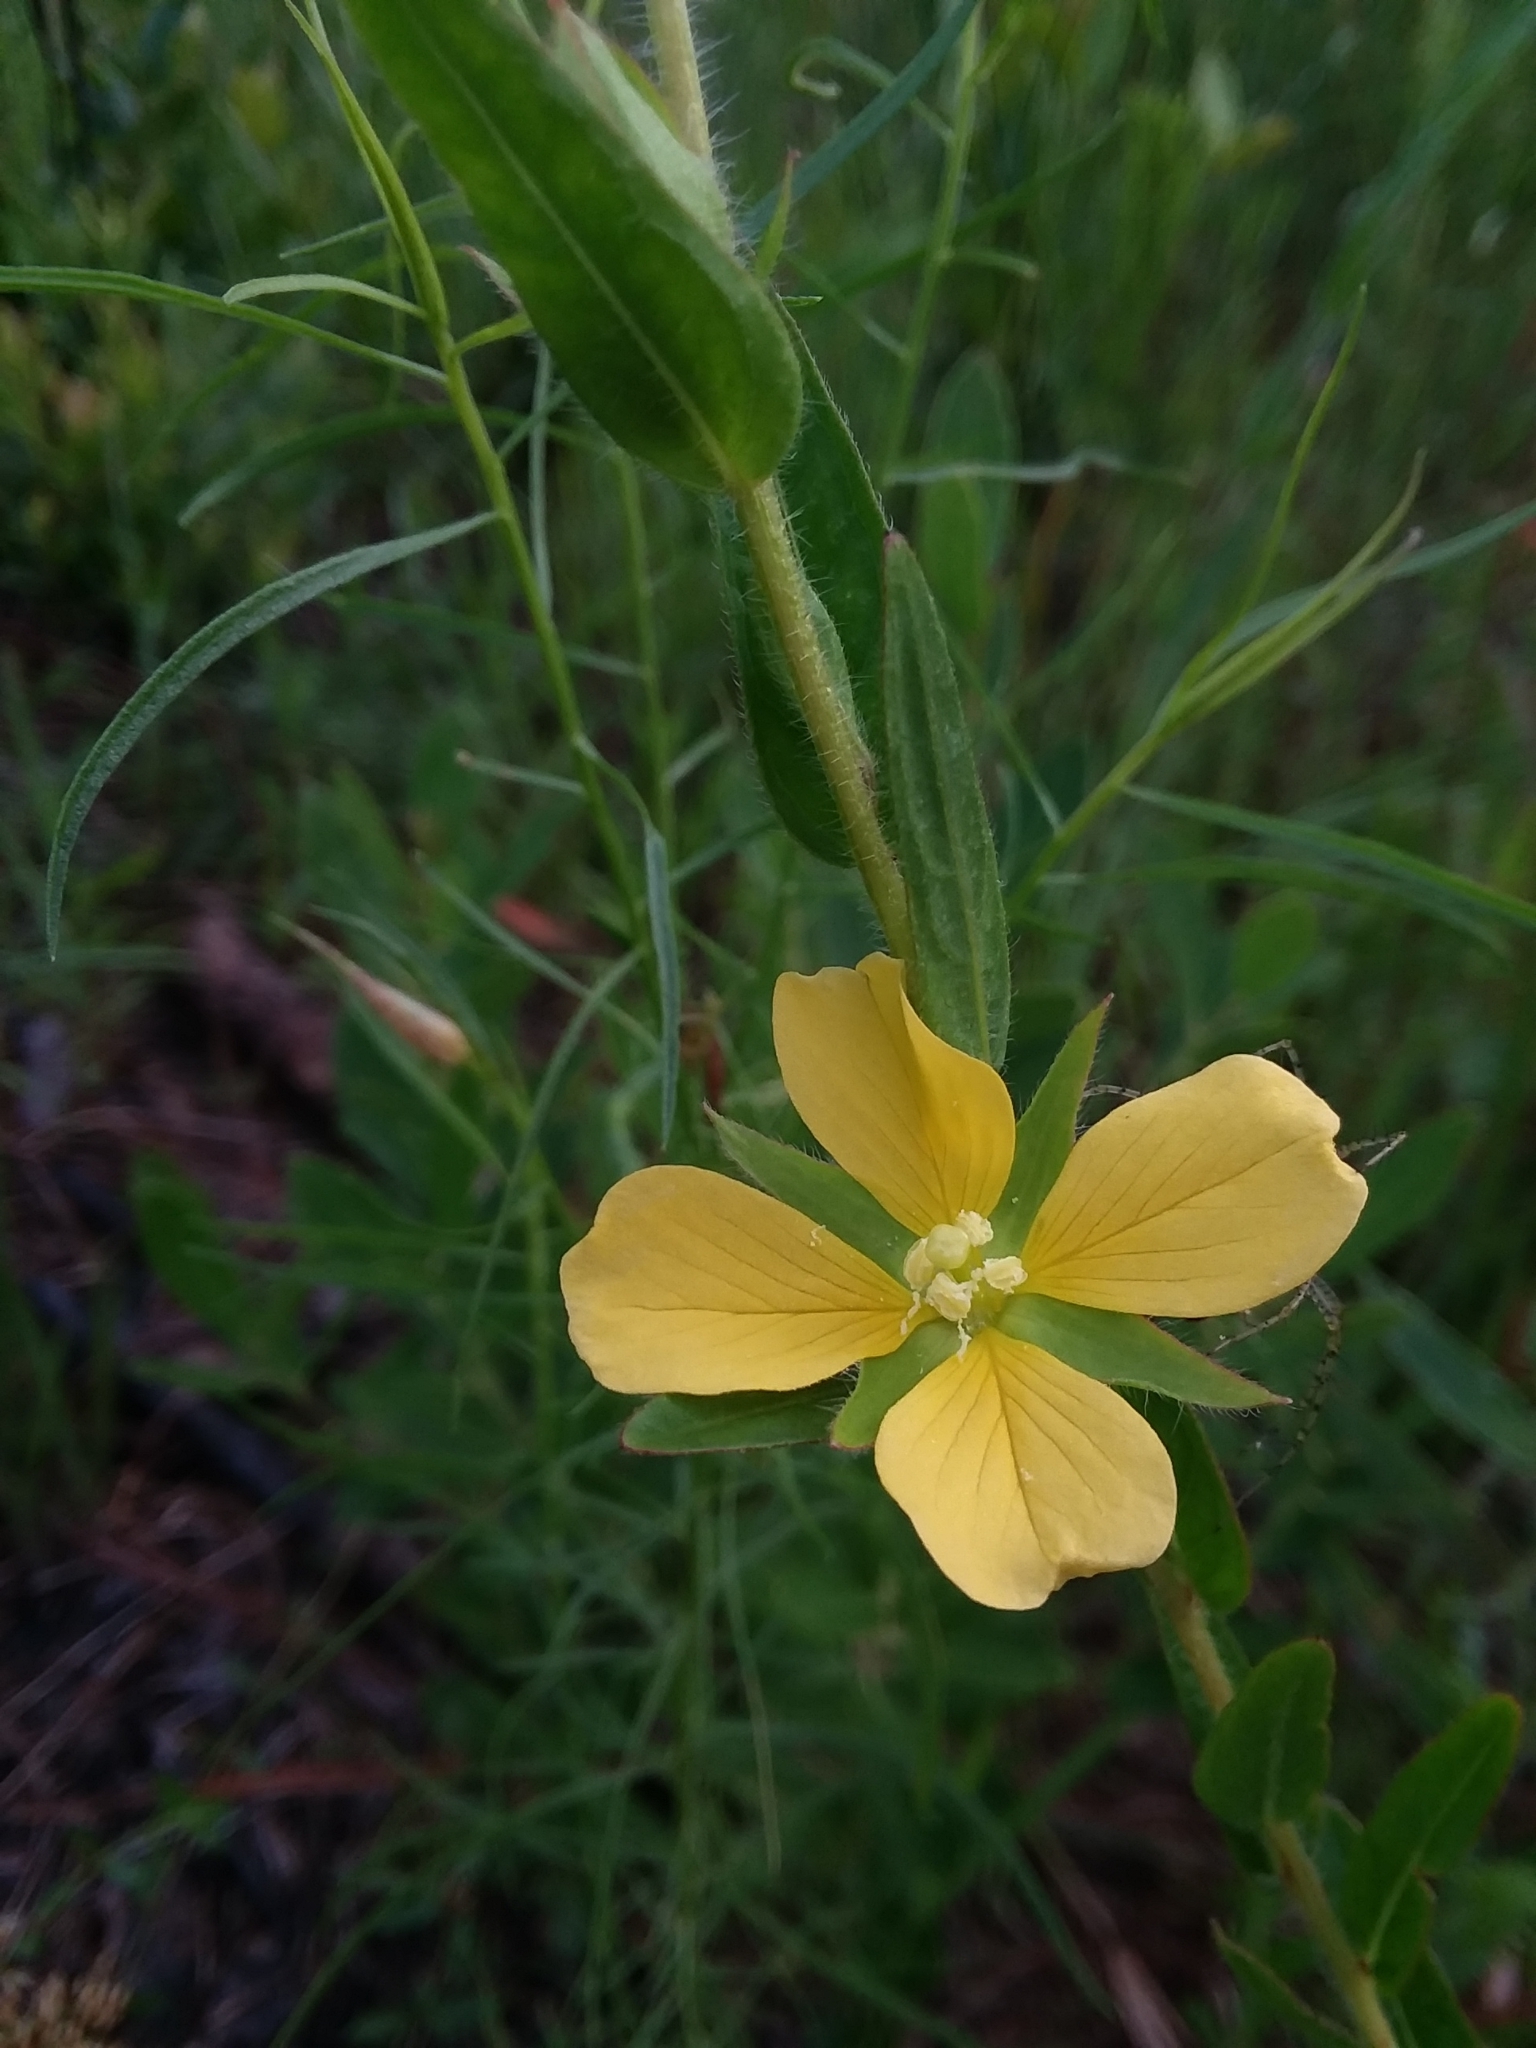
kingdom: Plantae
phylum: Tracheophyta
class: Magnoliopsida
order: Myrtales
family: Onagraceae
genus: Ludwigia
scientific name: Ludwigia hirtella
